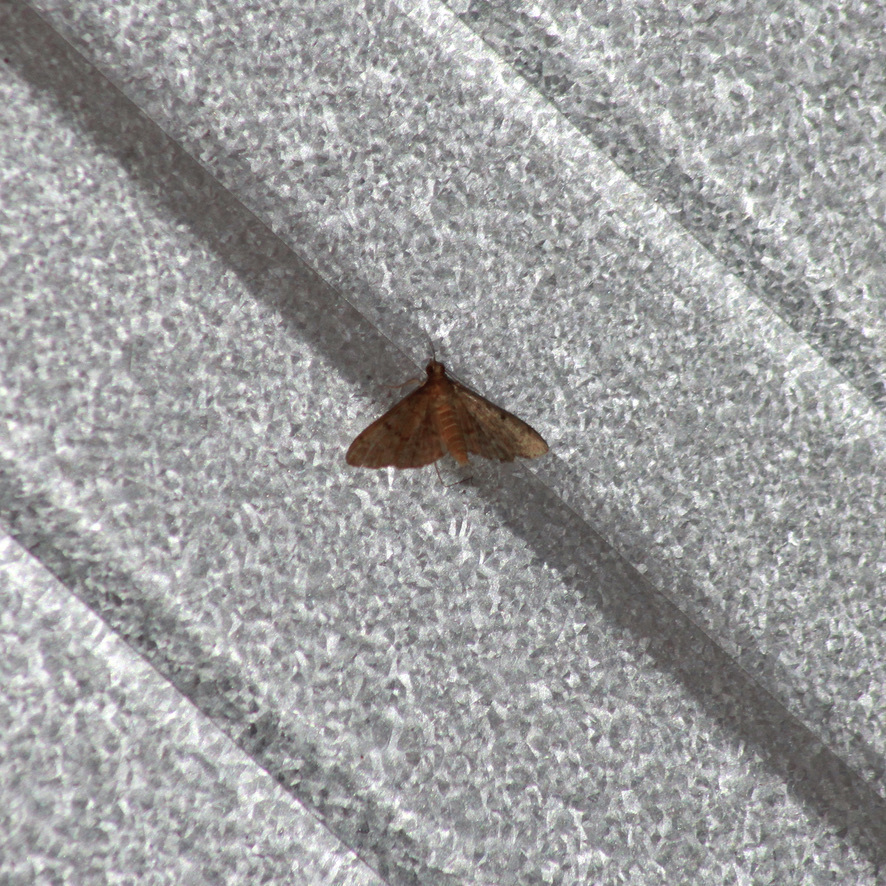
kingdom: Animalia
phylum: Arthropoda
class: Insecta
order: Lepidoptera
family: Crambidae
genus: Herpetogramma
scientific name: Herpetogramma phaeopteralis
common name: Dusky herpetogramma moth
